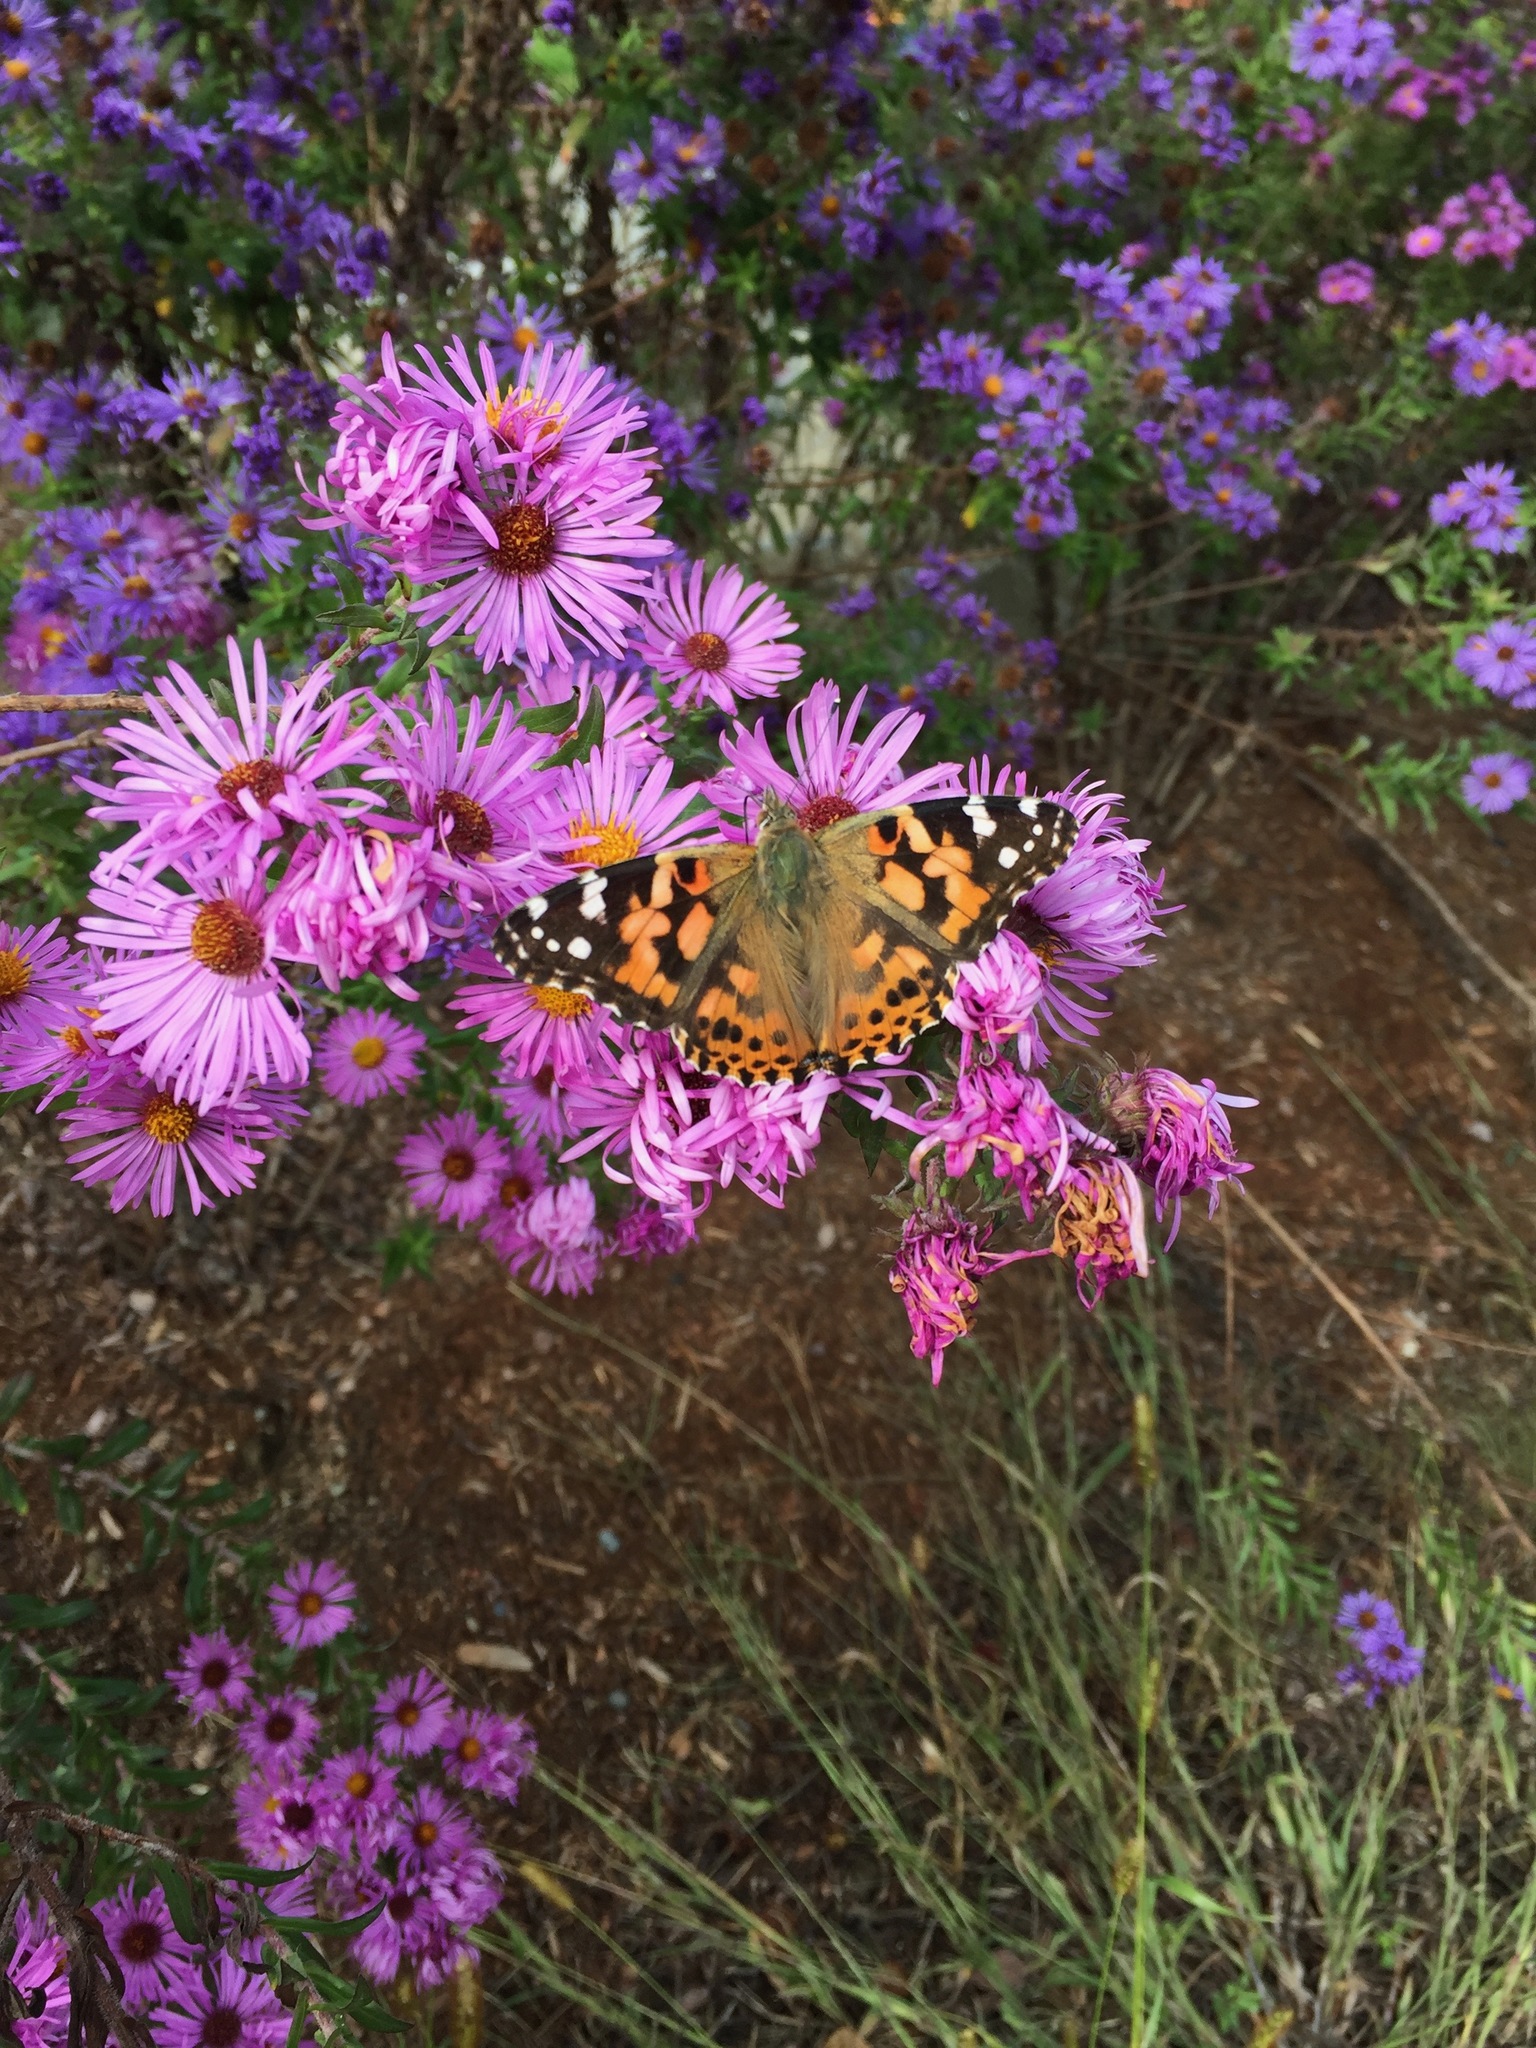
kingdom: Animalia
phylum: Arthropoda
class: Insecta
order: Lepidoptera
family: Nymphalidae
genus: Vanessa
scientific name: Vanessa cardui
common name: Painted lady
